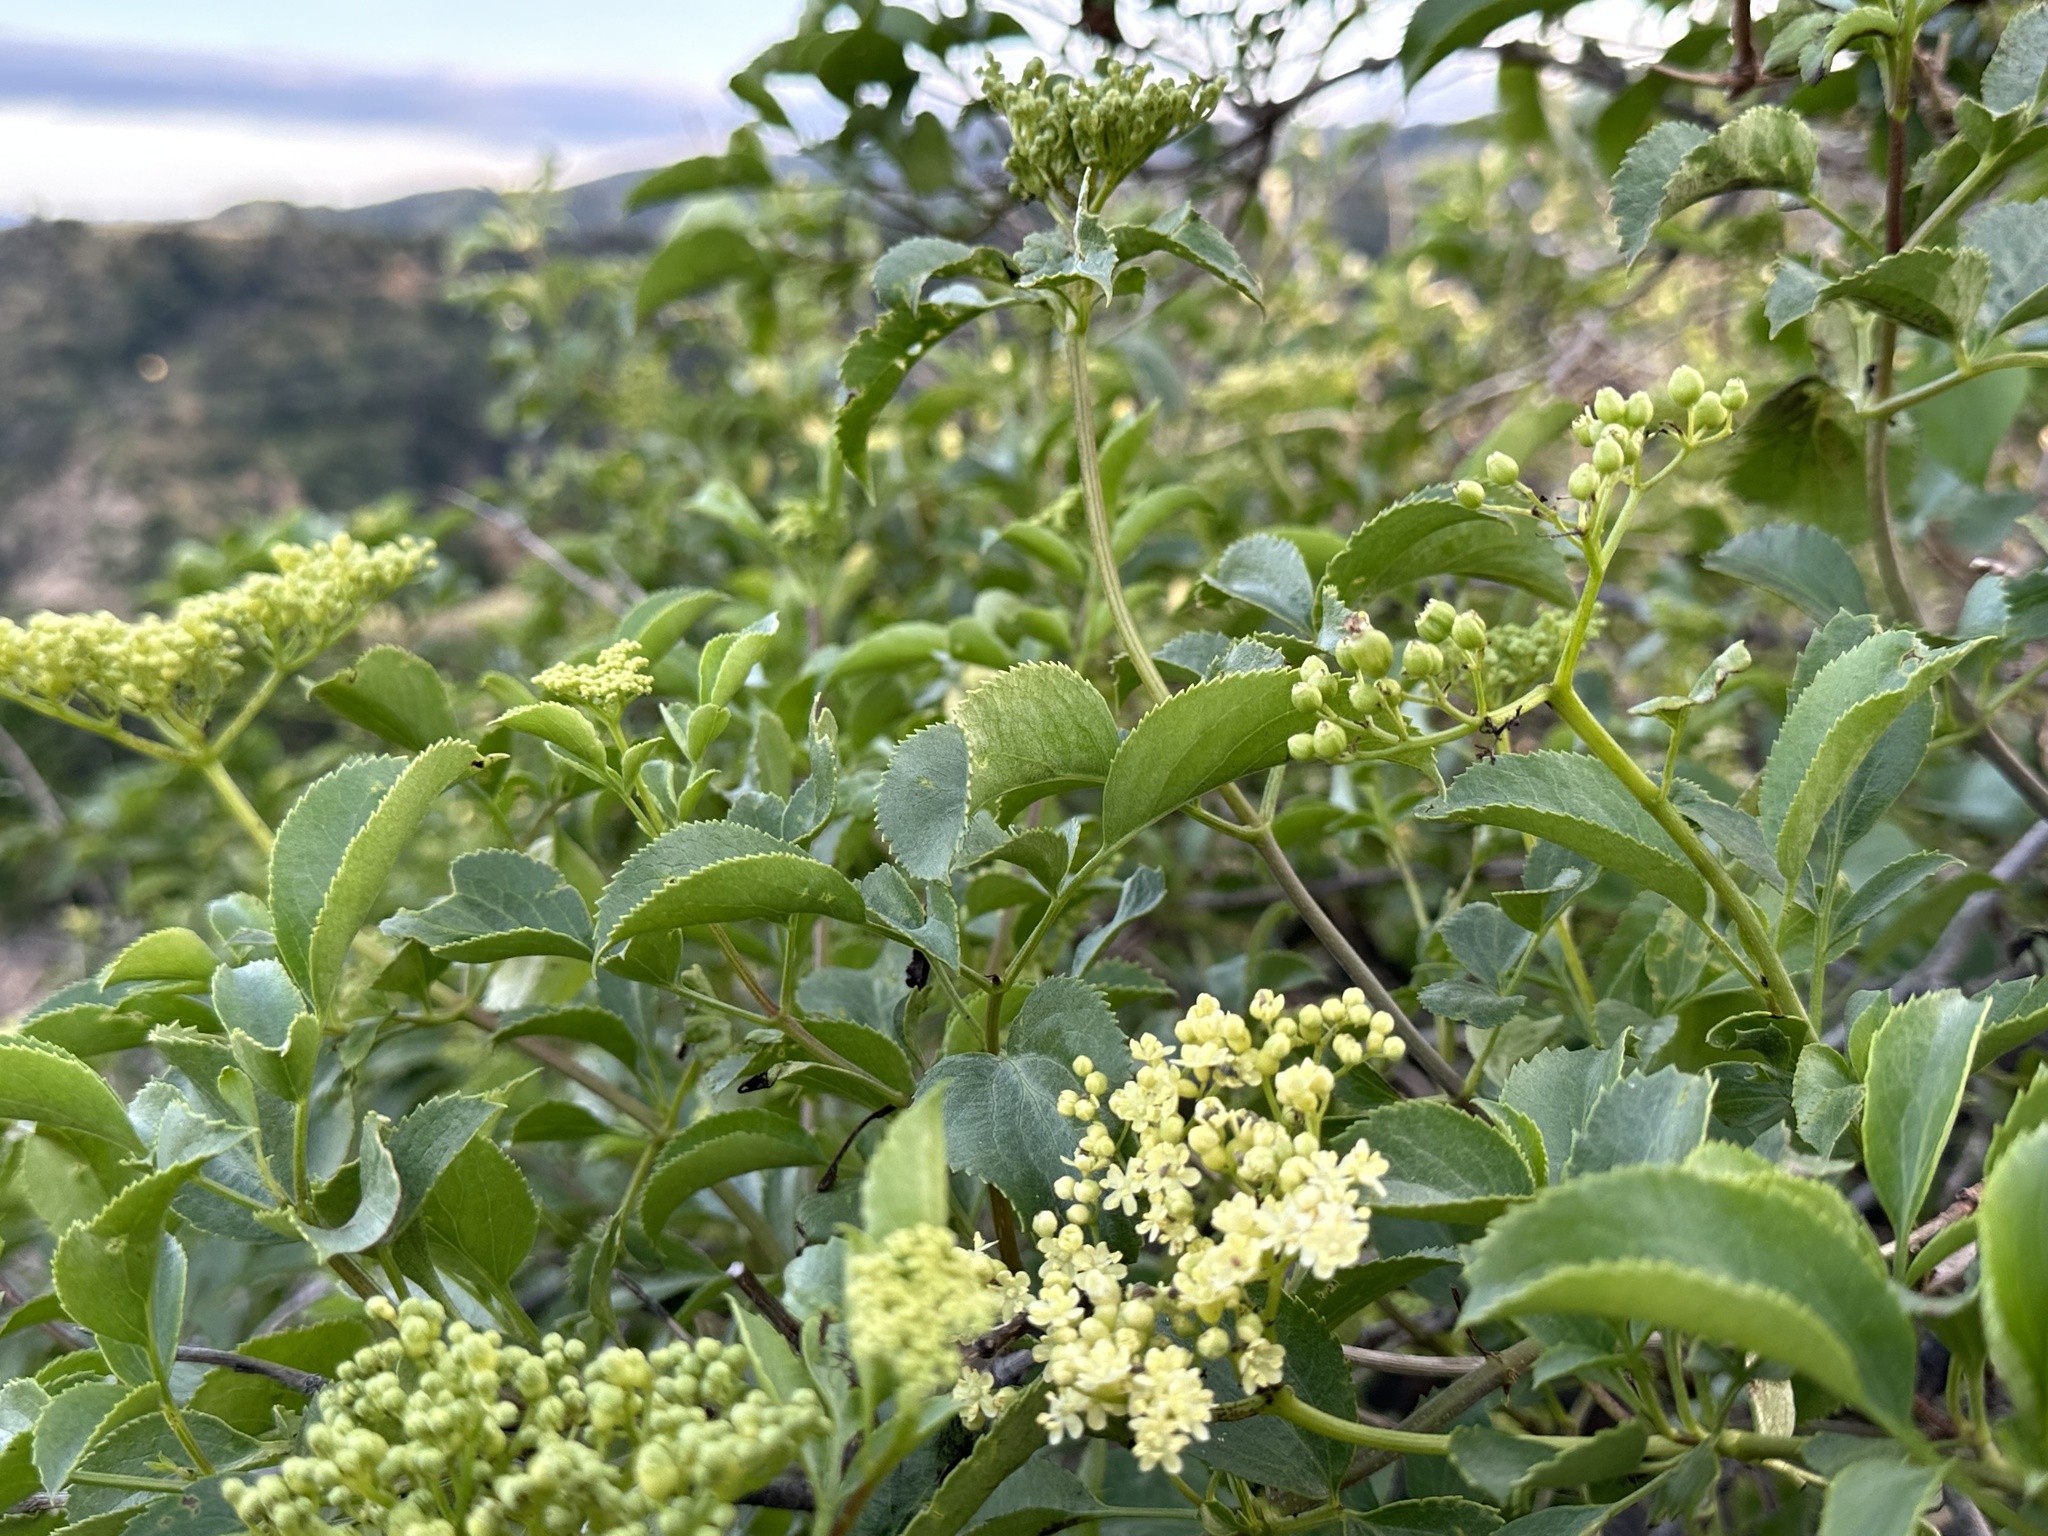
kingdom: Plantae
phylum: Tracheophyta
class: Magnoliopsida
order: Dipsacales
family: Viburnaceae
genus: Sambucus
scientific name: Sambucus cerulea
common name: Blue elder
